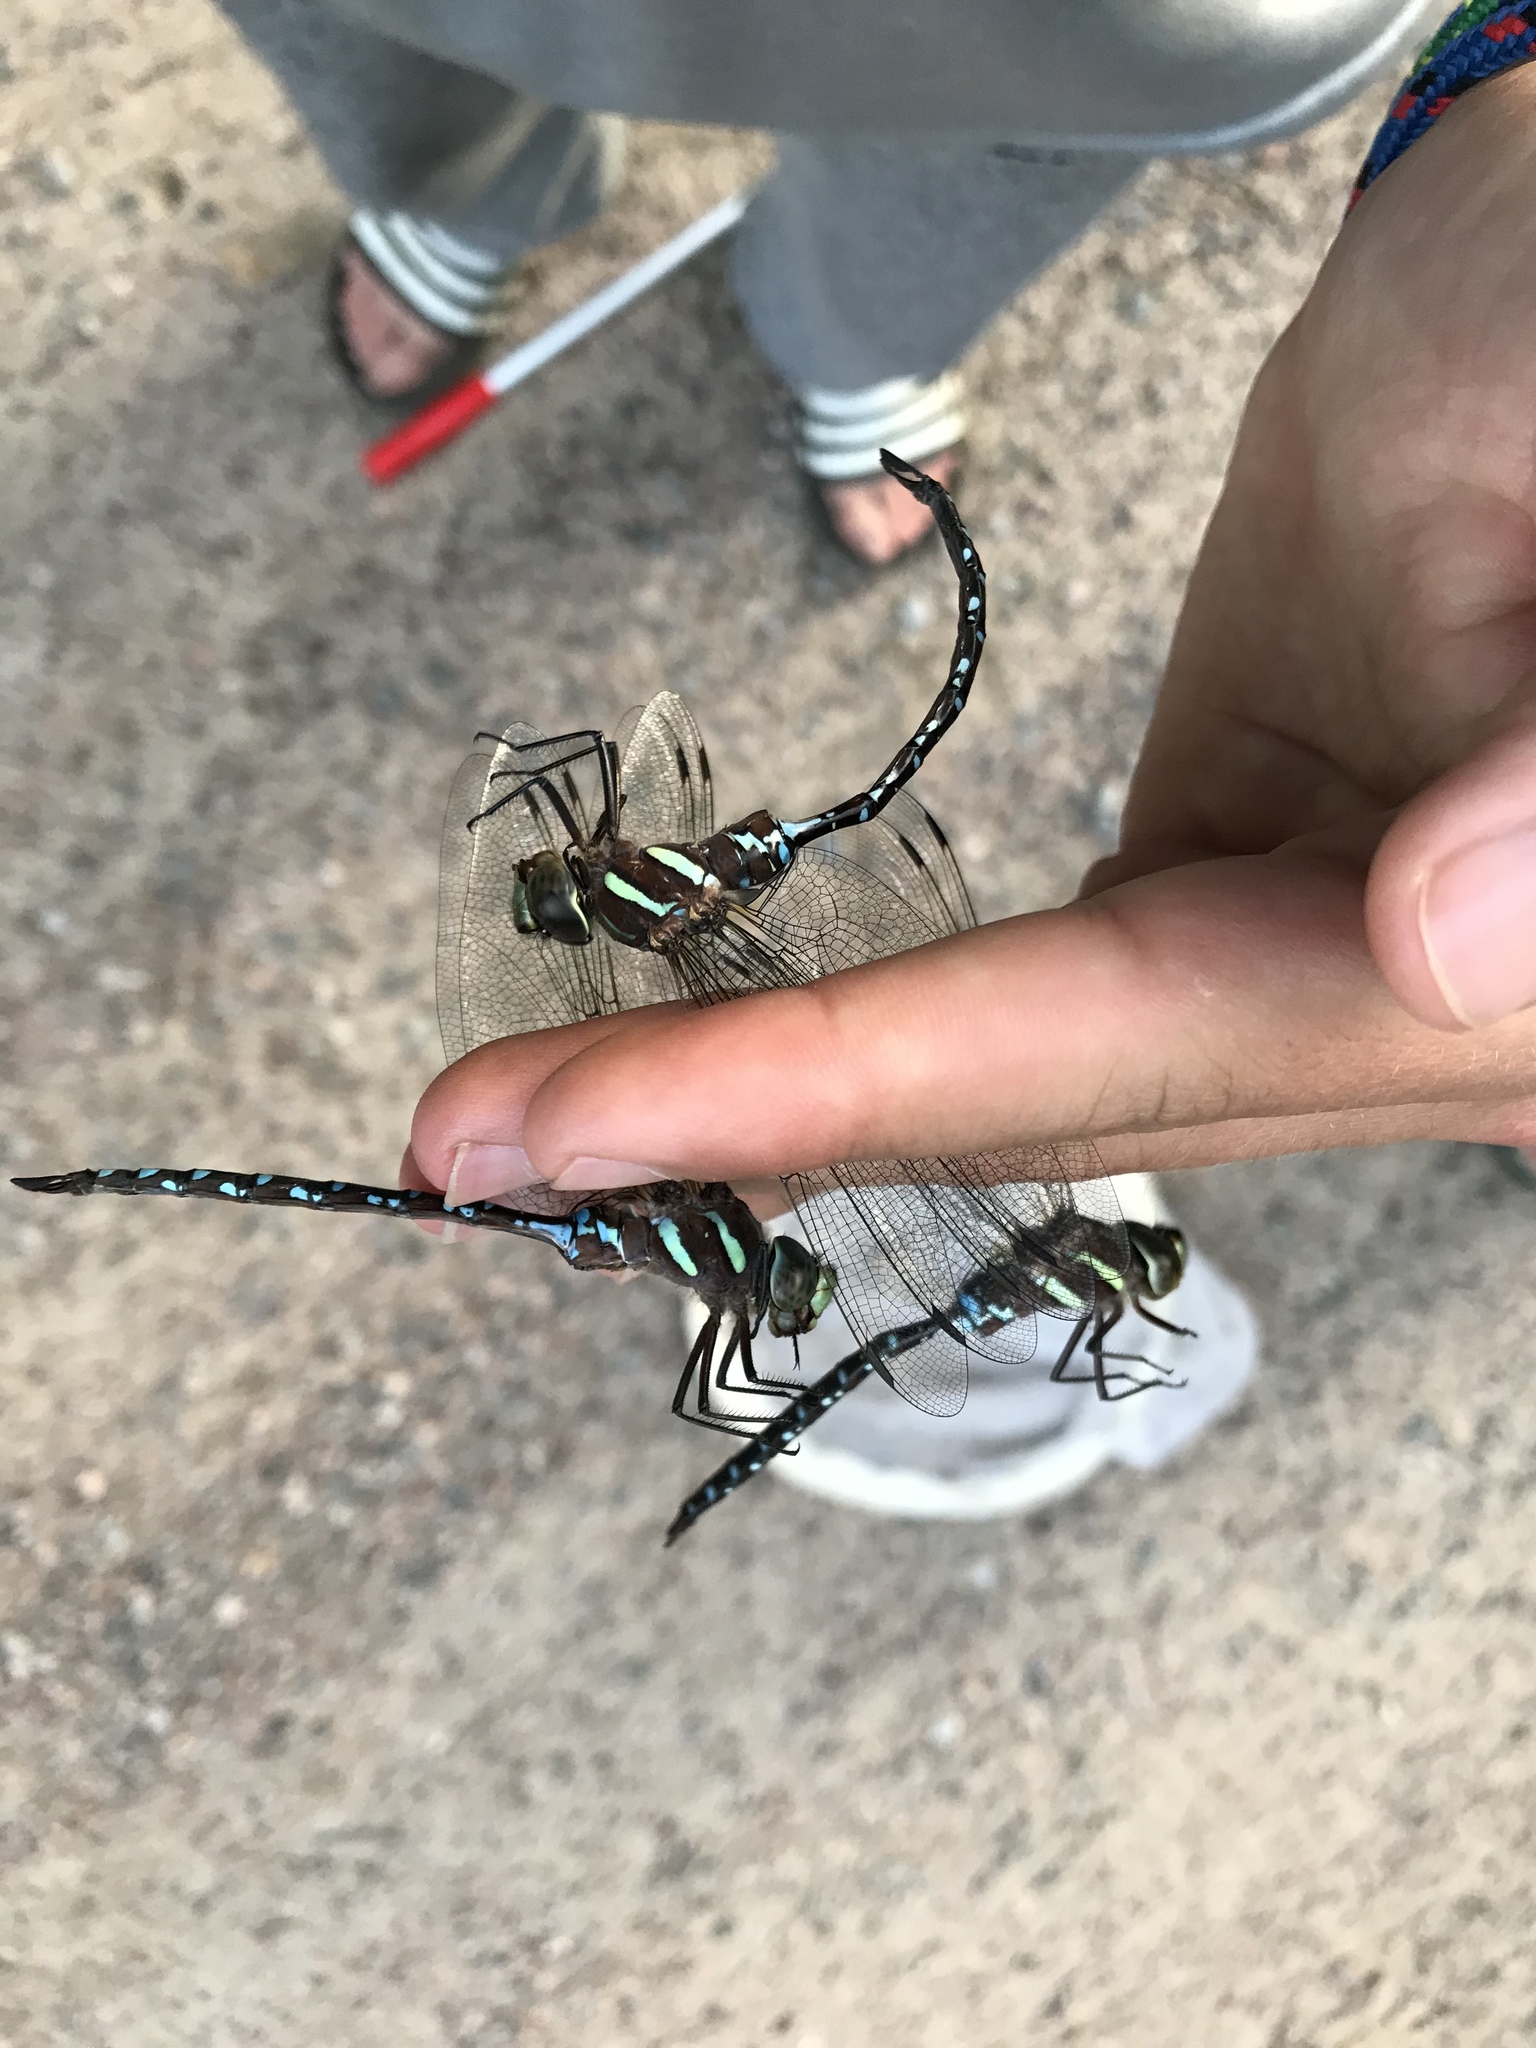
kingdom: Animalia
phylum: Arthropoda
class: Insecta
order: Odonata
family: Aeshnidae
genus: Aeshna
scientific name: Aeshna tuberculifera
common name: Aeschne à tubercules
